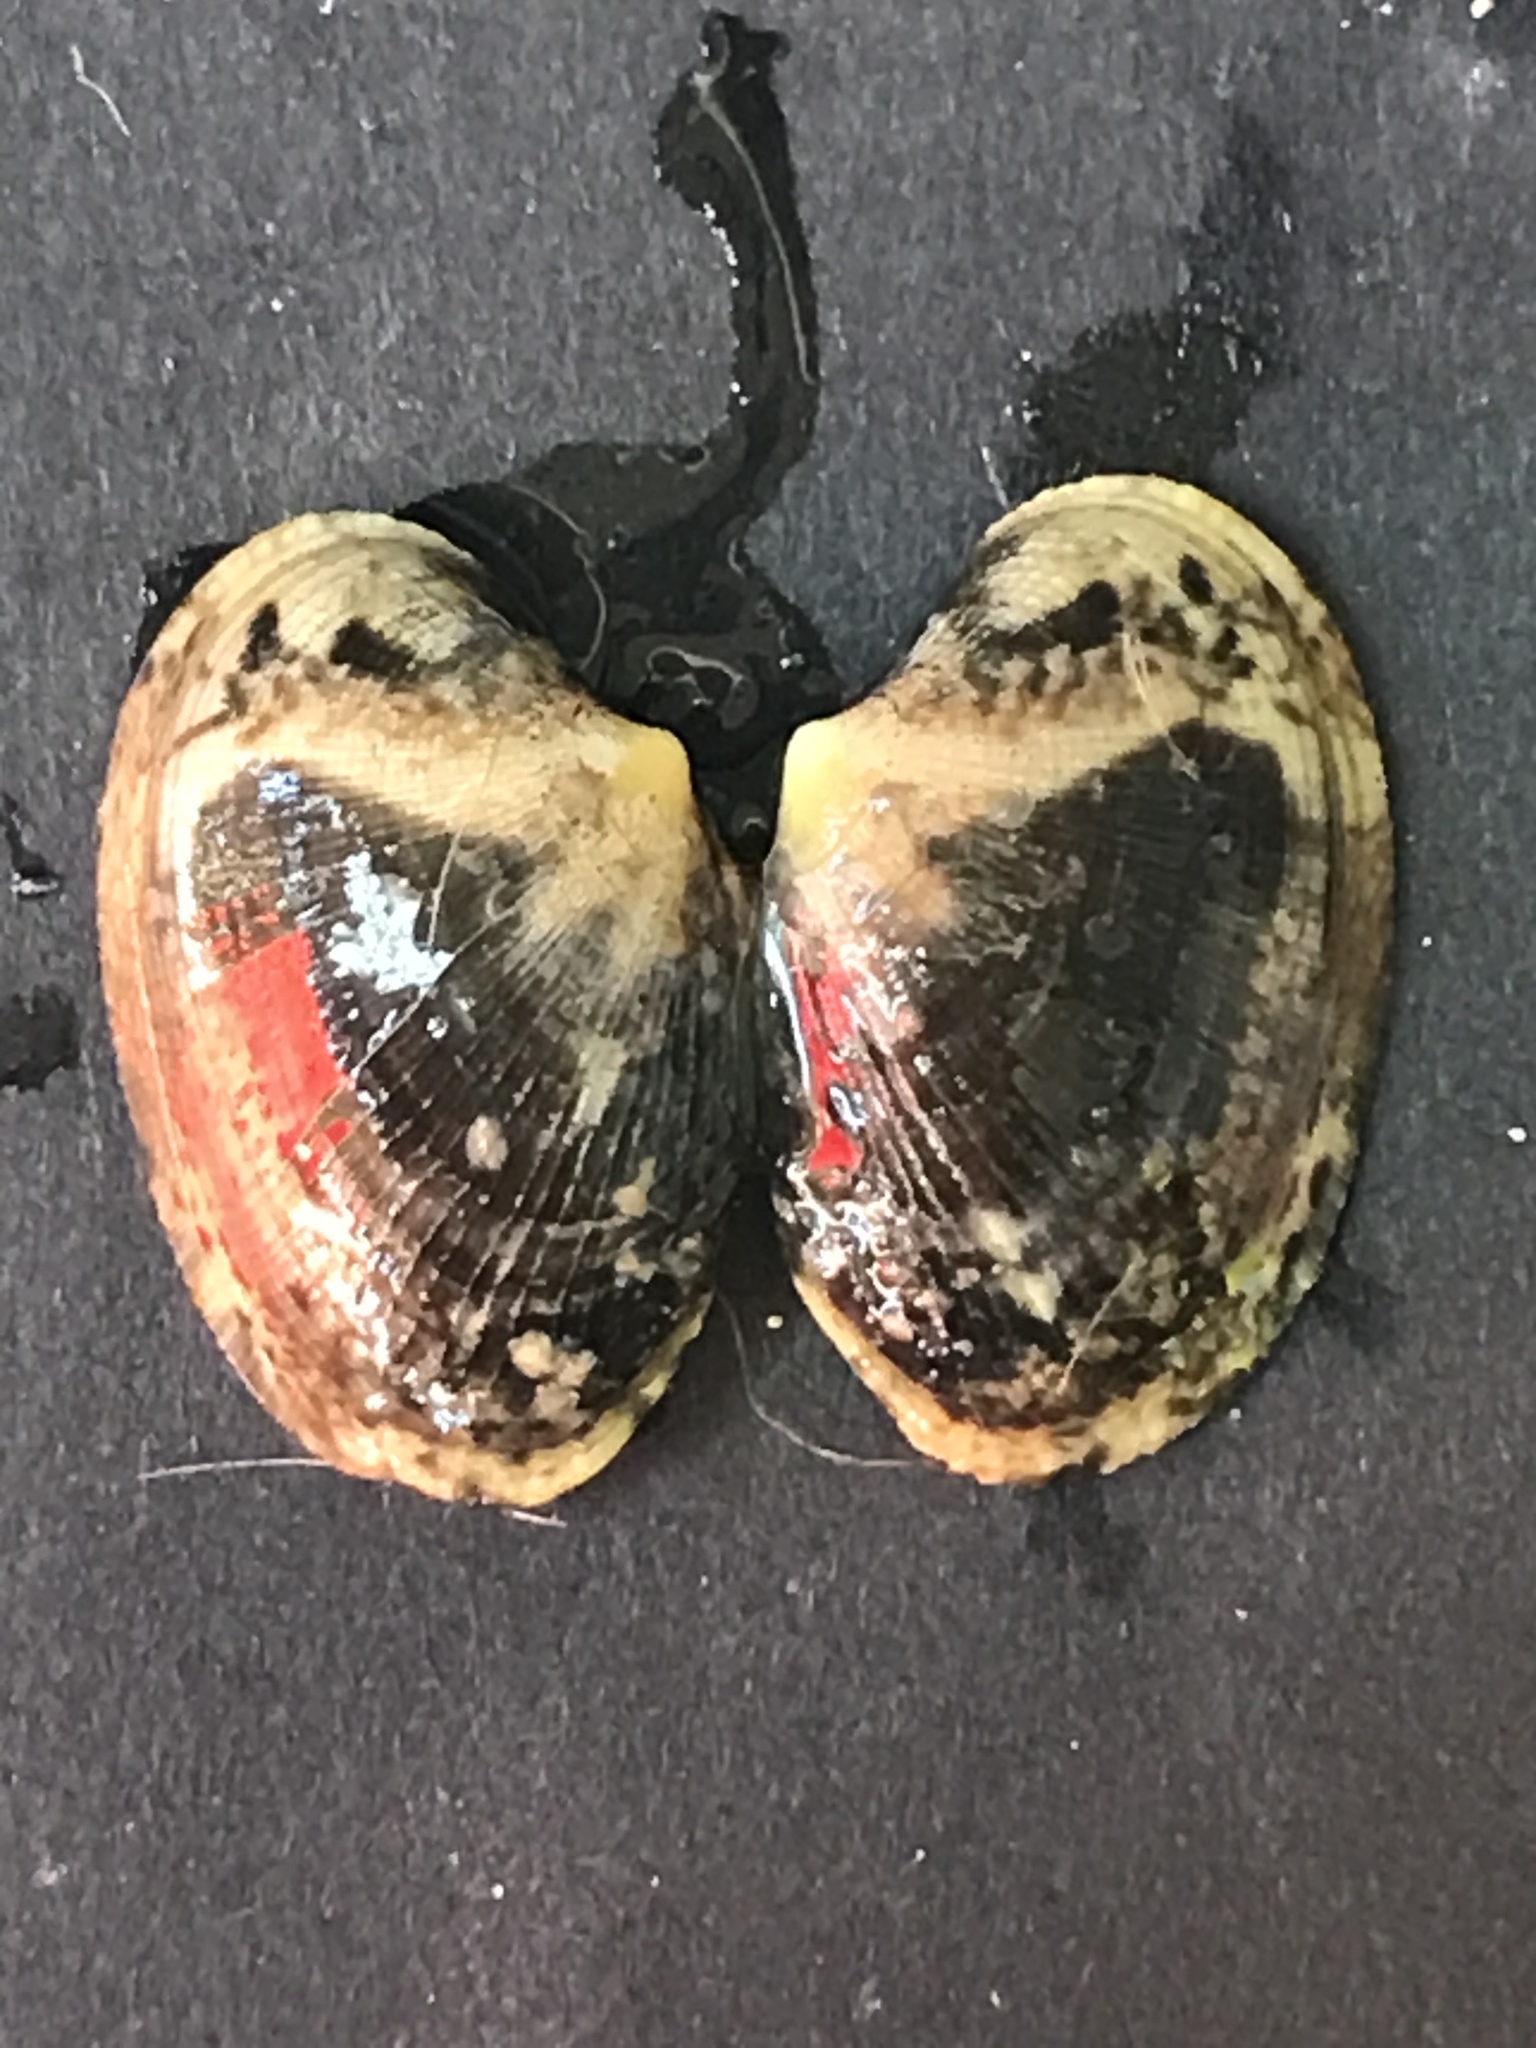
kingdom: Animalia
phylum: Mollusca
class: Bivalvia
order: Venerida
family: Veneridae
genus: Ruditapes
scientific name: Ruditapes philippinarum
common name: Manila clam
